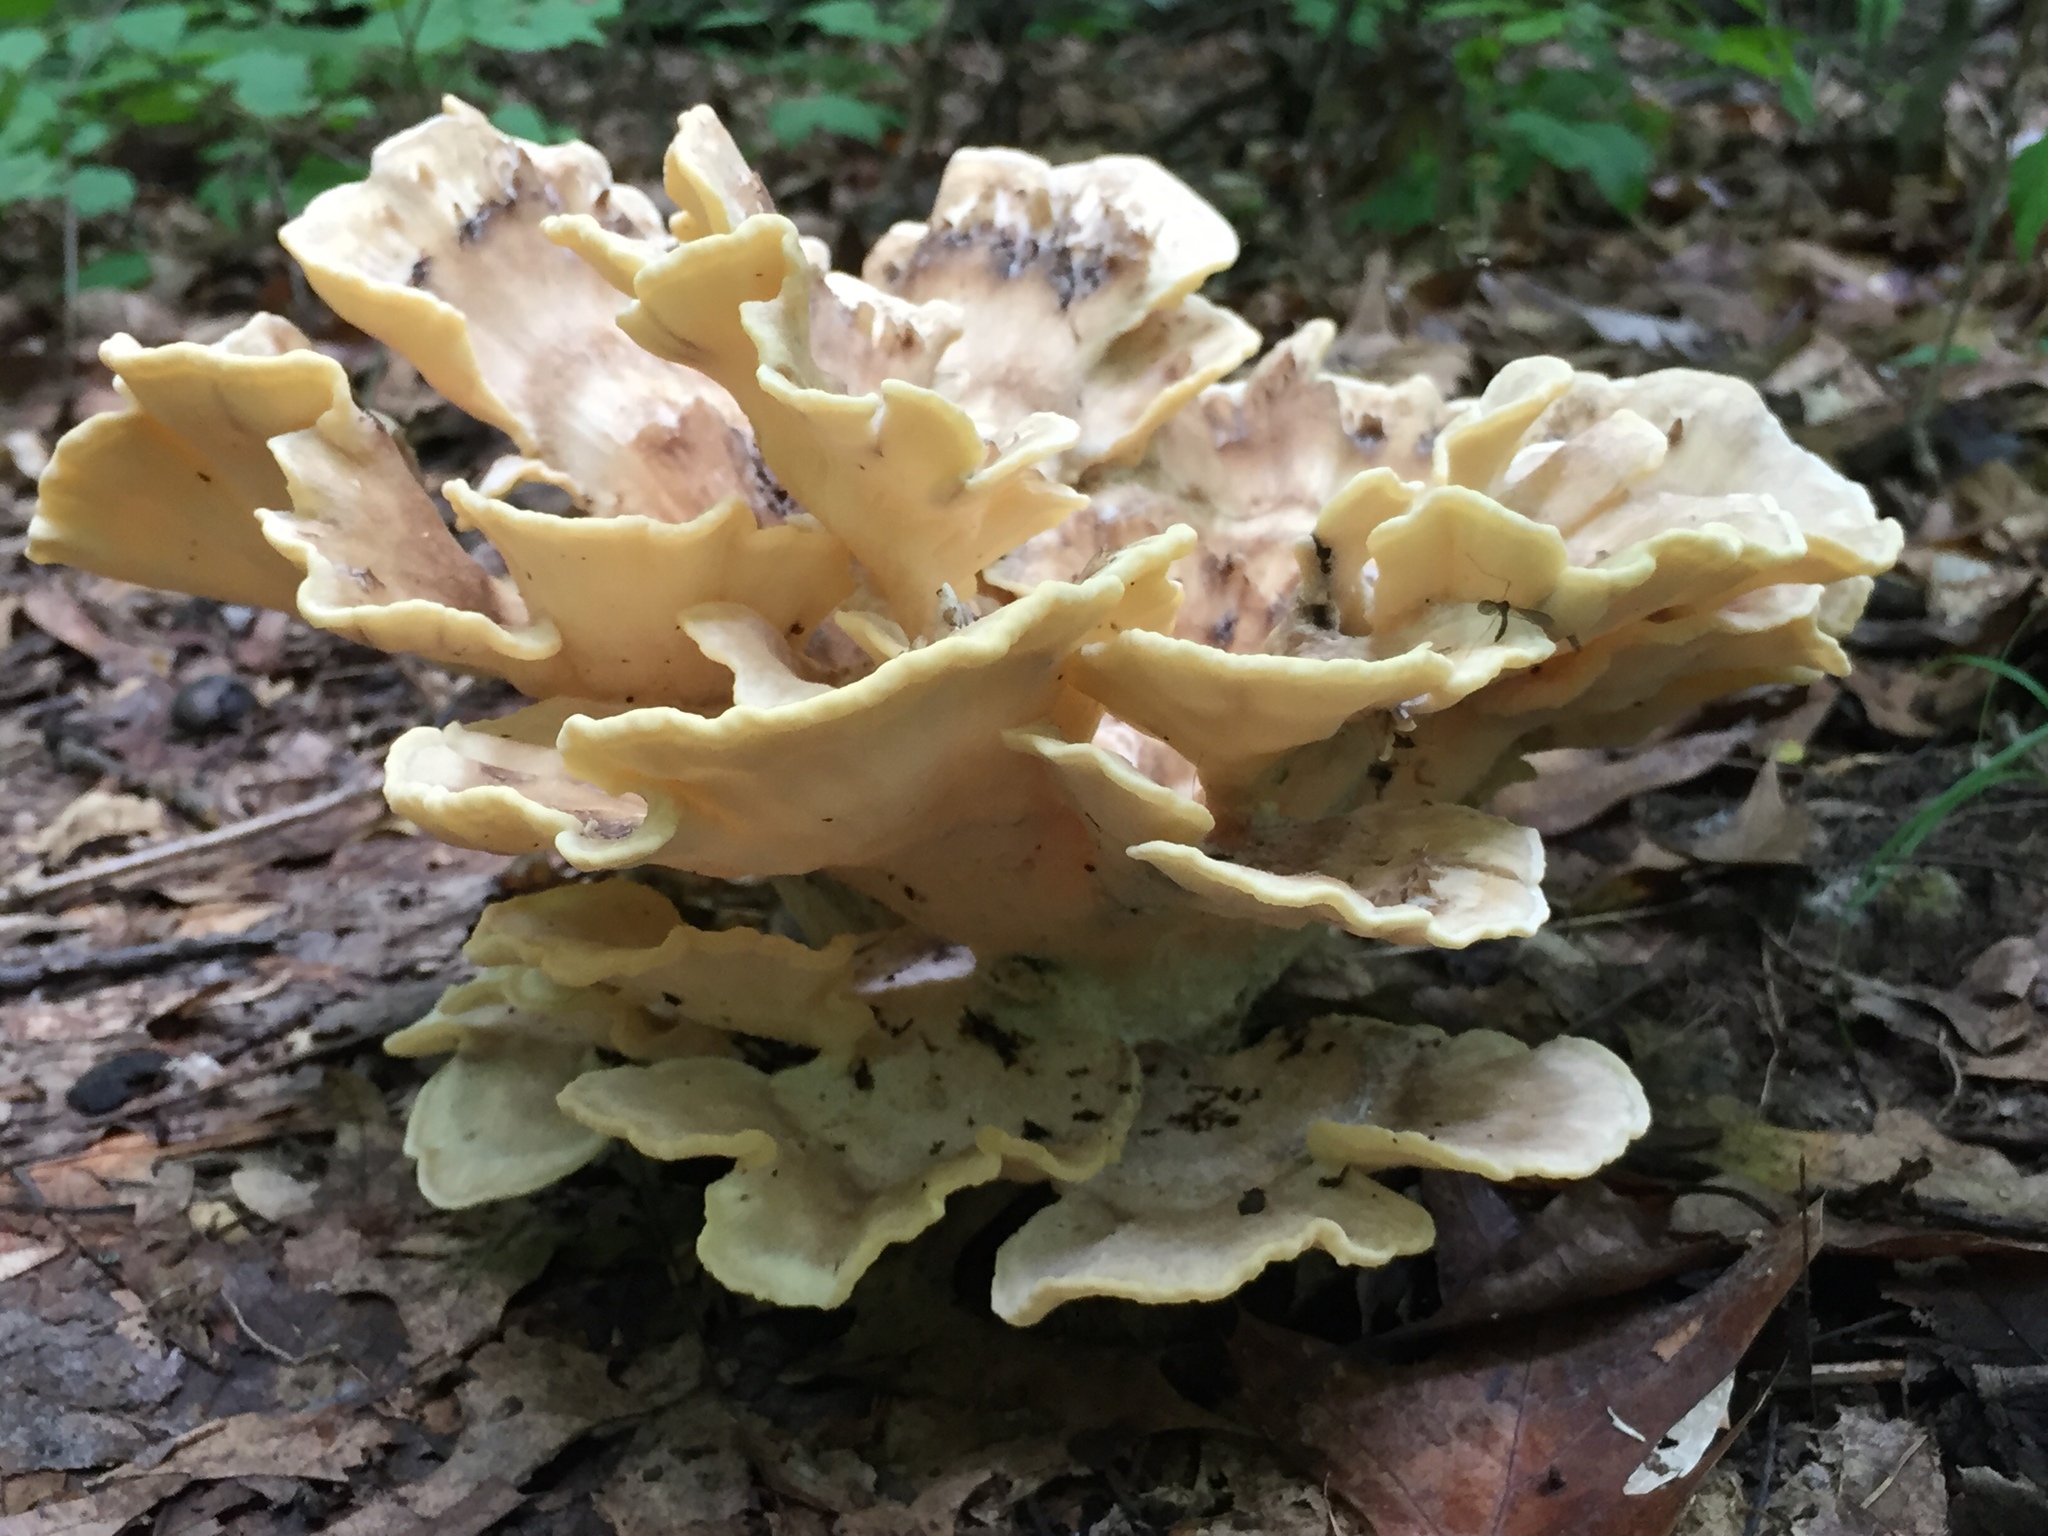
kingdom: Fungi
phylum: Basidiomycota
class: Agaricomycetes
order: Polyporales
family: Meripilaceae
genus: Meripilus
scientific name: Meripilus sumstinei
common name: Black-staining polypore
